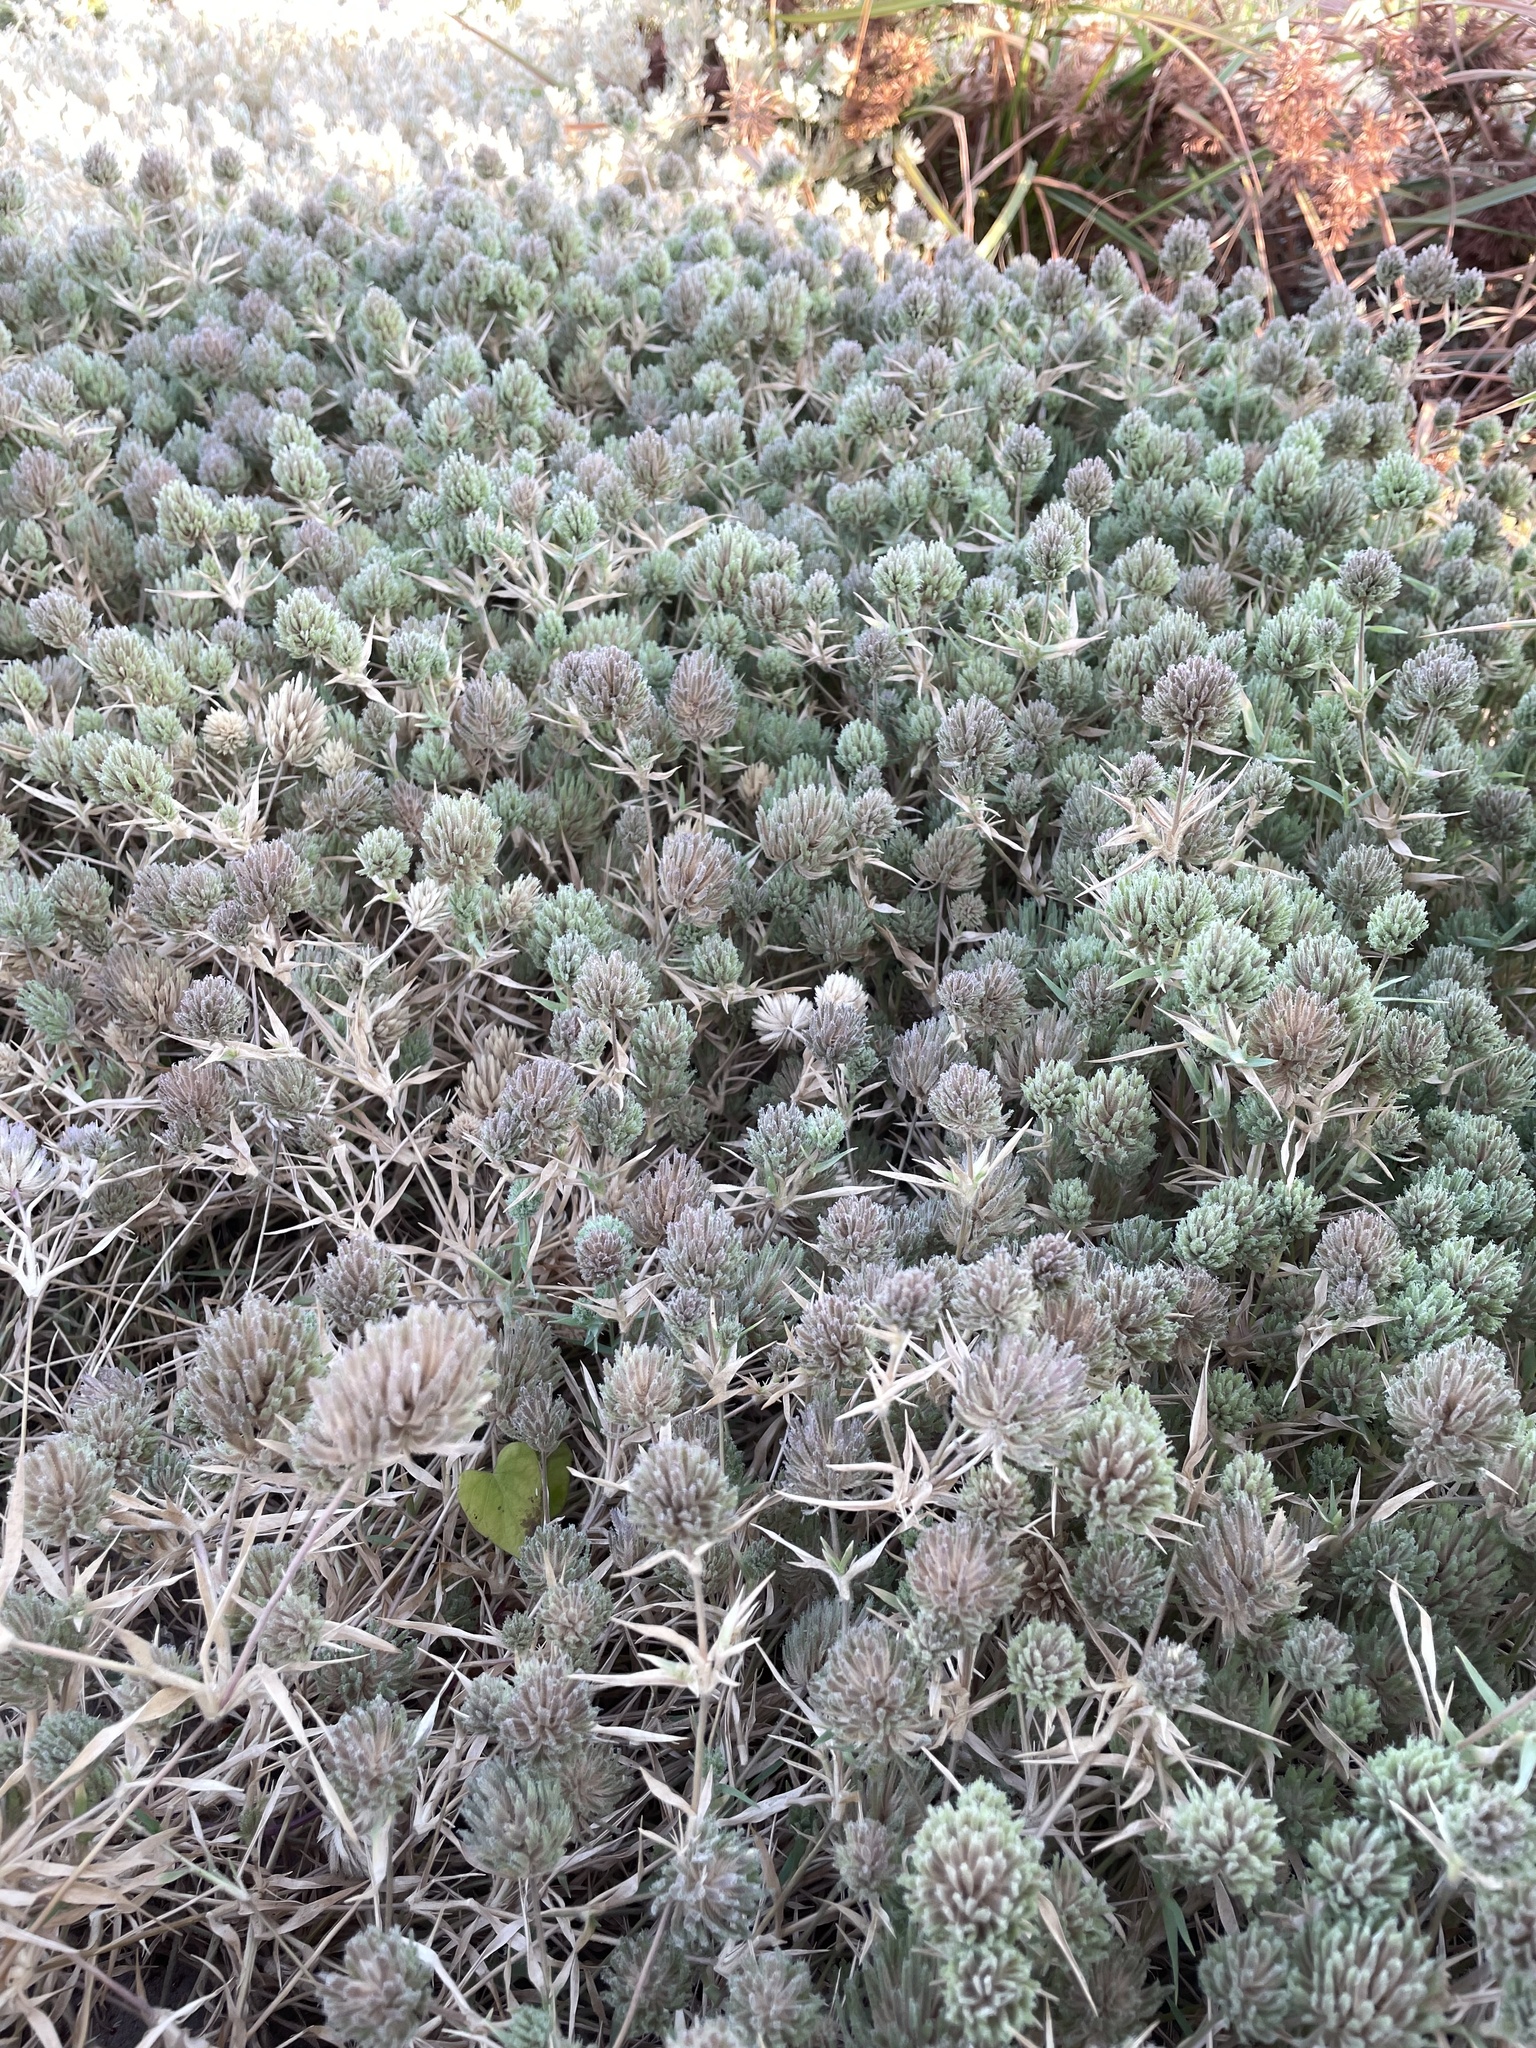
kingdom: Plantae
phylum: Tracheophyta
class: Liliopsida
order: Poales
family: Poaceae
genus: Eragrostis
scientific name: Eragrostis reptans
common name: Creeping love grass
